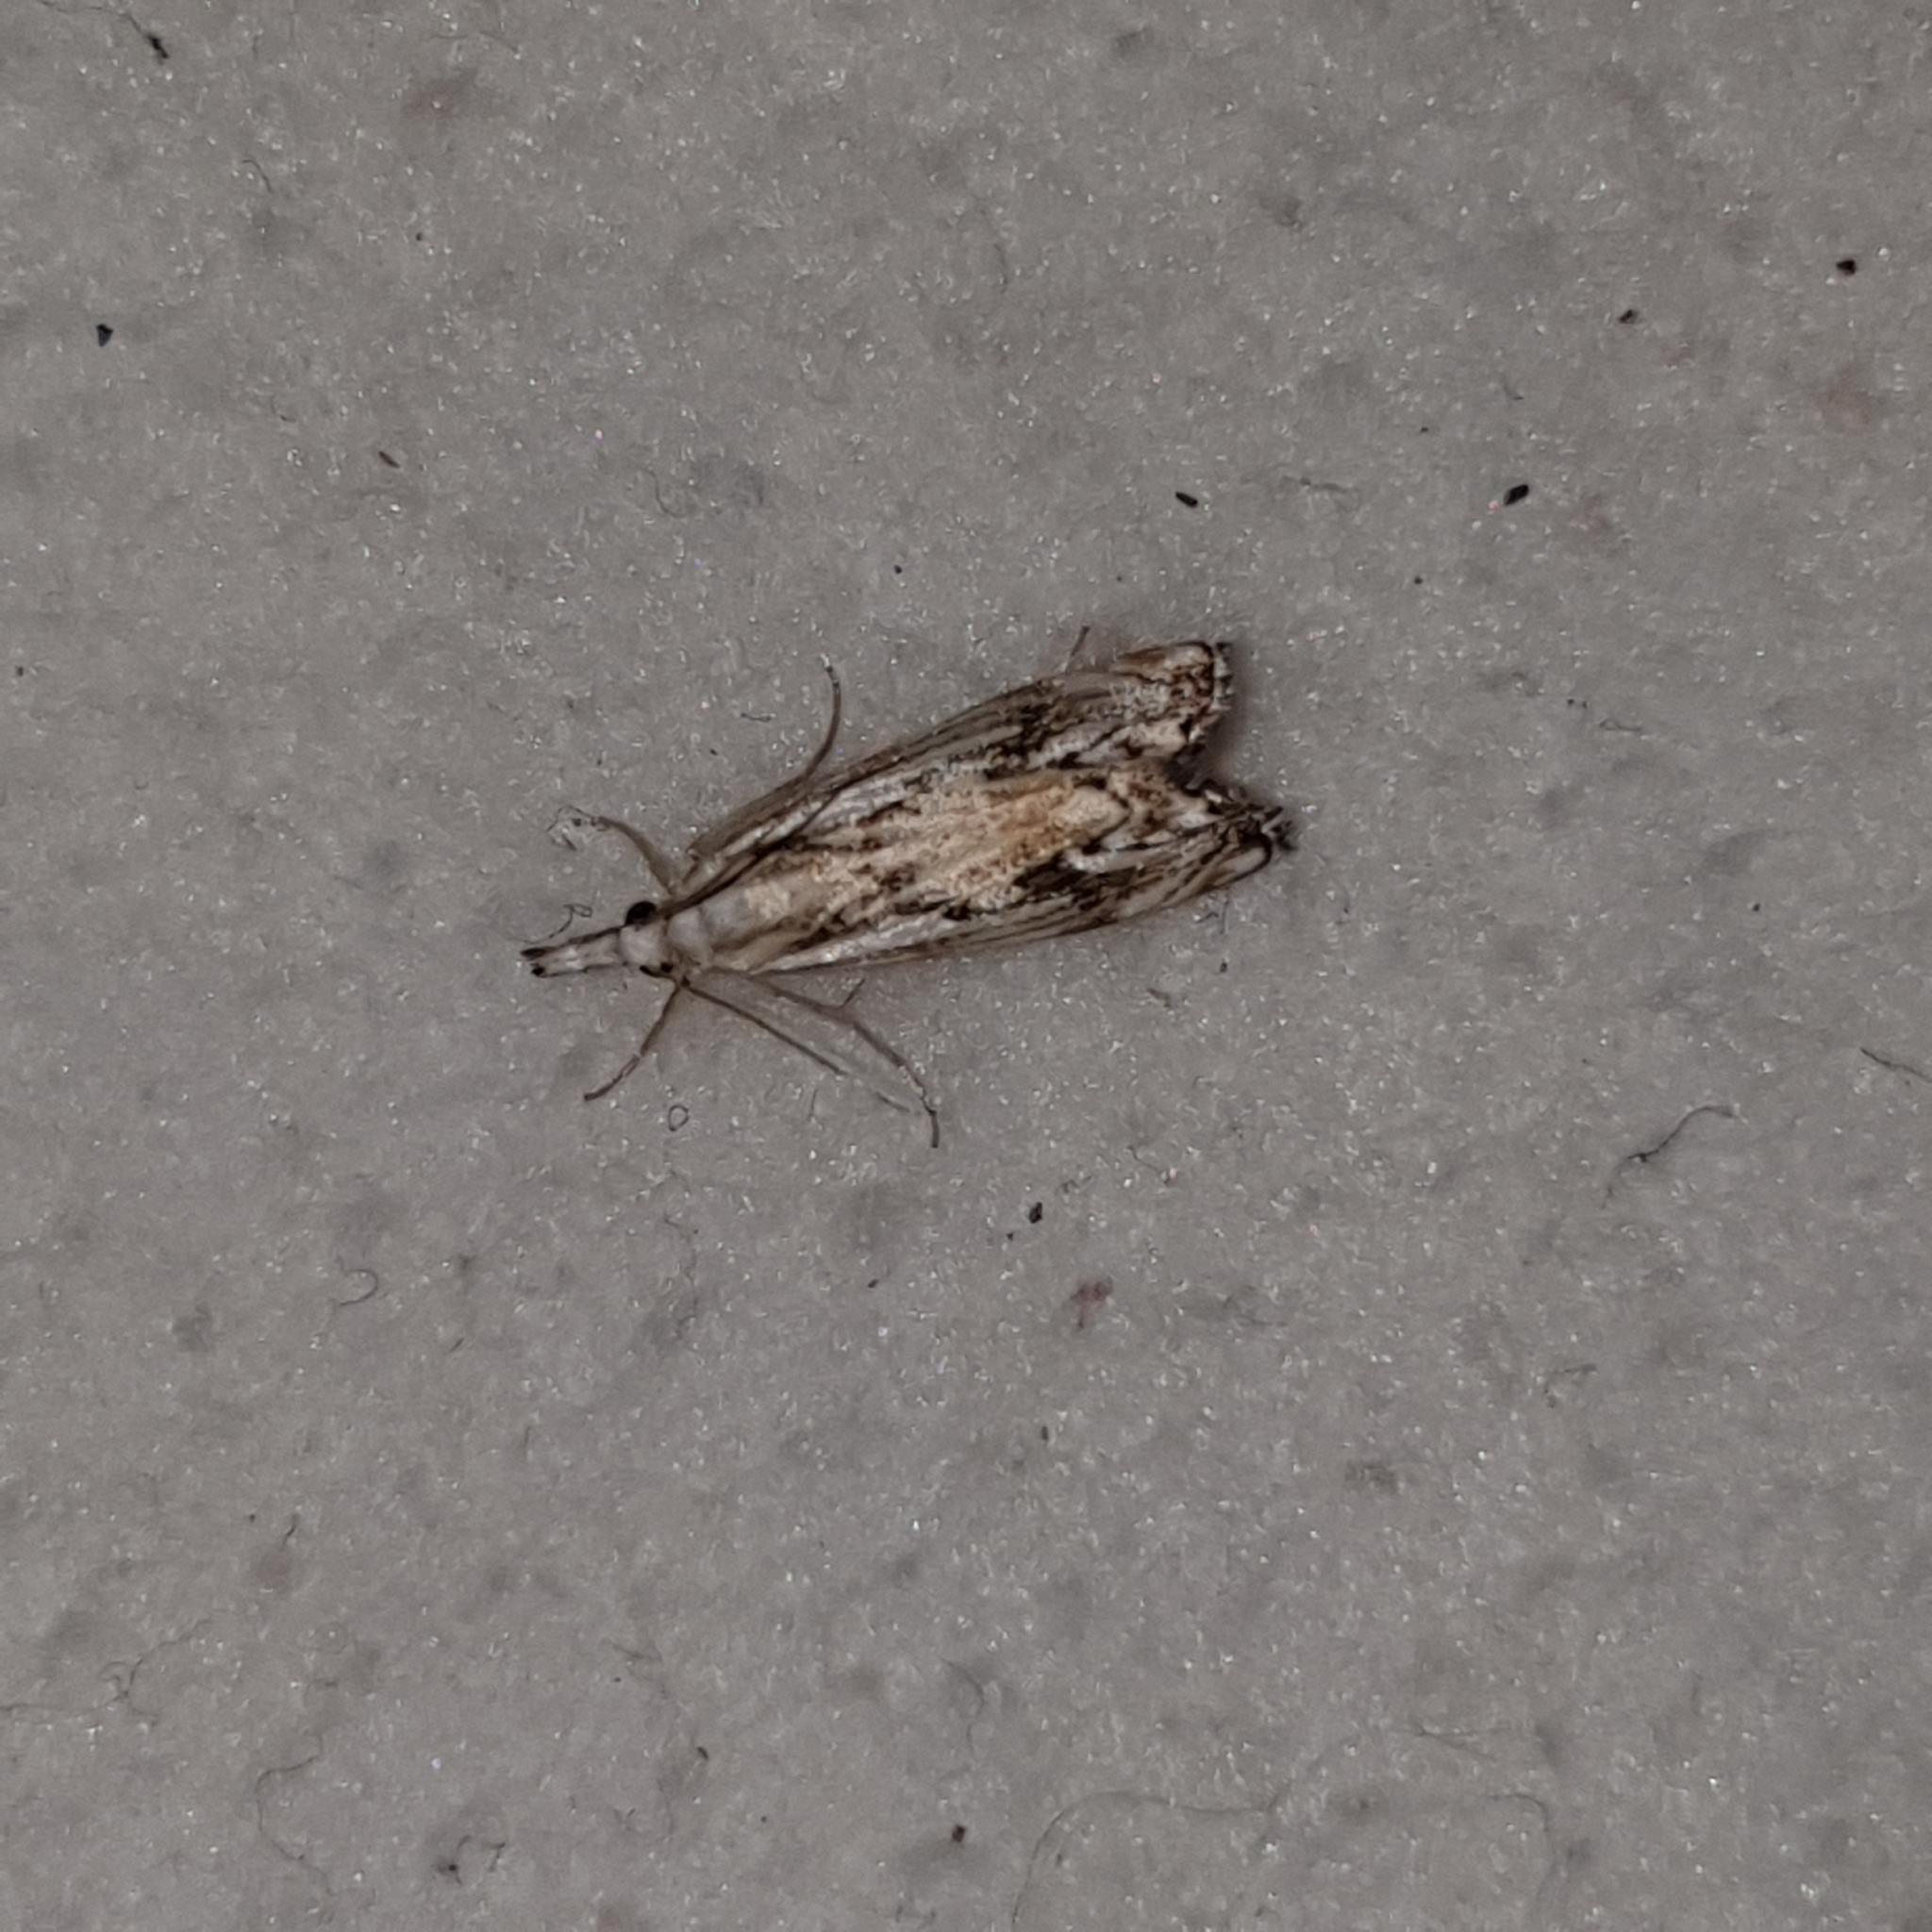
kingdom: Animalia
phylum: Arthropoda
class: Insecta
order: Lepidoptera
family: Crambidae
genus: Catoptria
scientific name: Catoptria falsella
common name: Chequered grass-veneer
